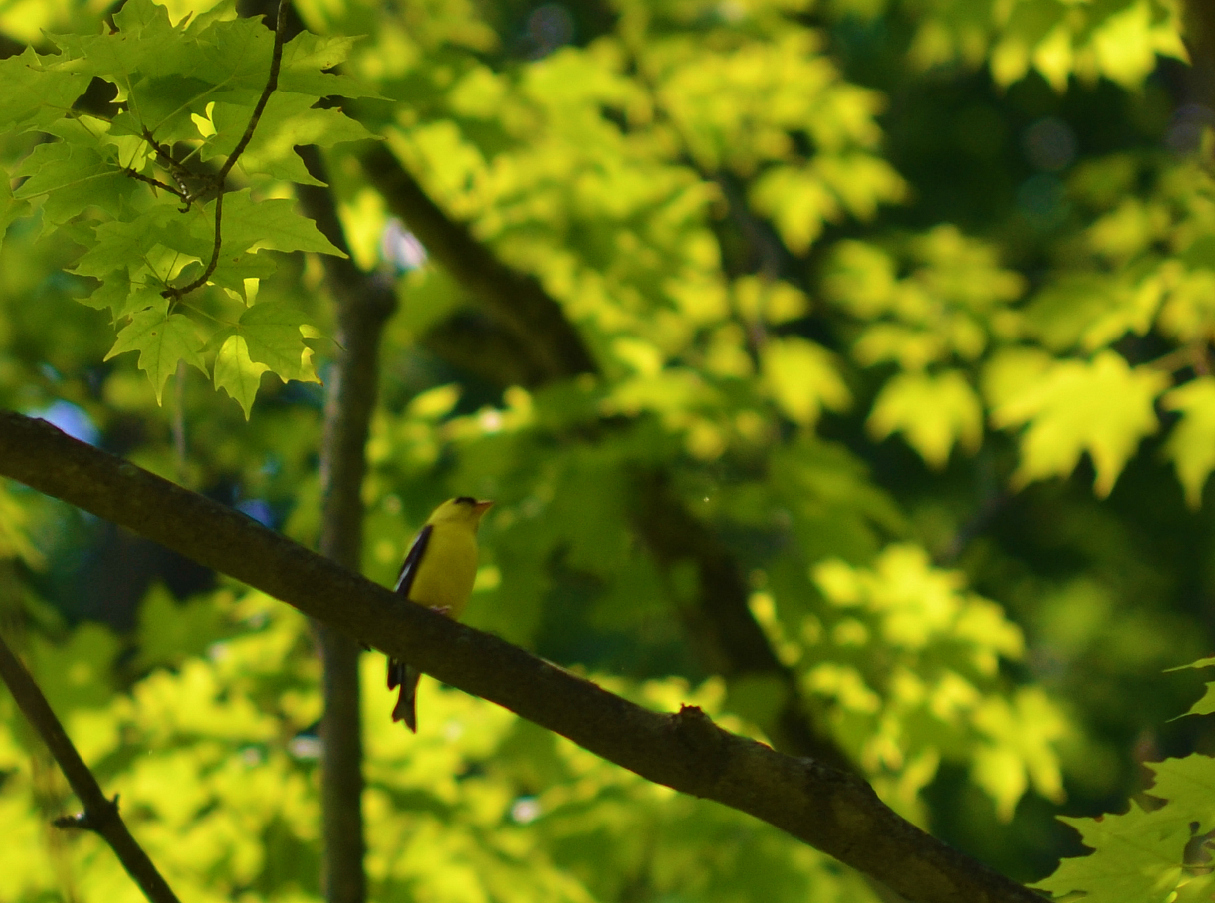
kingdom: Animalia
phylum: Chordata
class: Aves
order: Passeriformes
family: Fringillidae
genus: Spinus
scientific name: Spinus tristis
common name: American goldfinch
